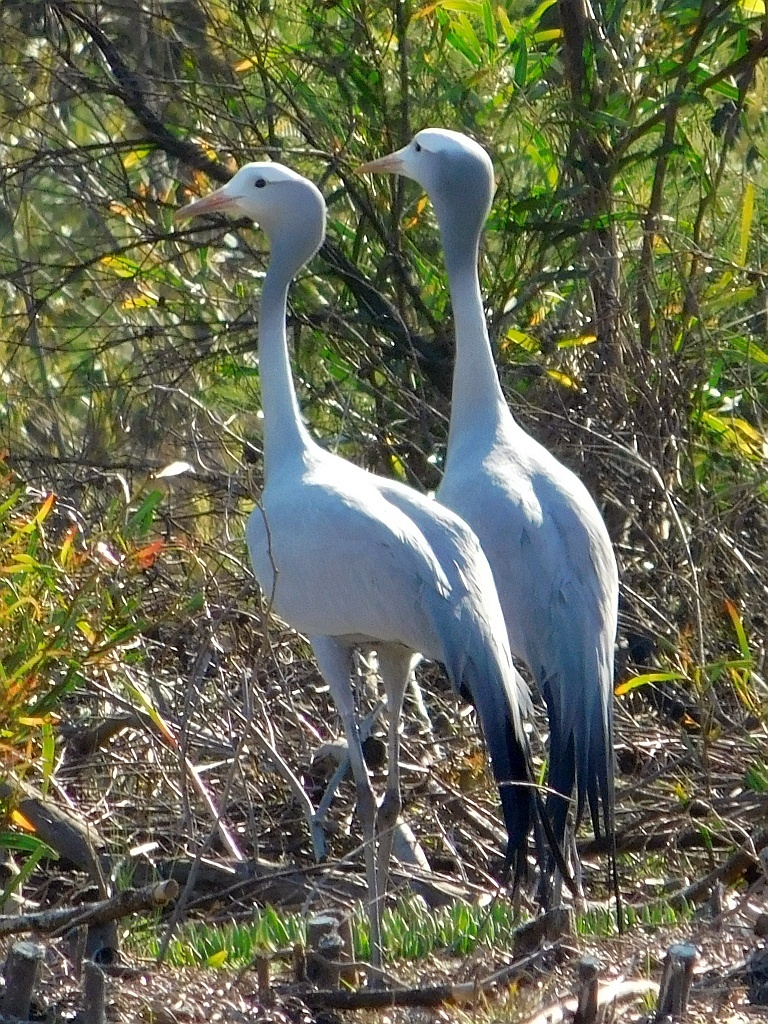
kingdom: Animalia
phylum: Chordata
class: Aves
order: Gruiformes
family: Gruidae
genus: Anthropoides
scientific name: Anthropoides paradiseus
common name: Blue crane
